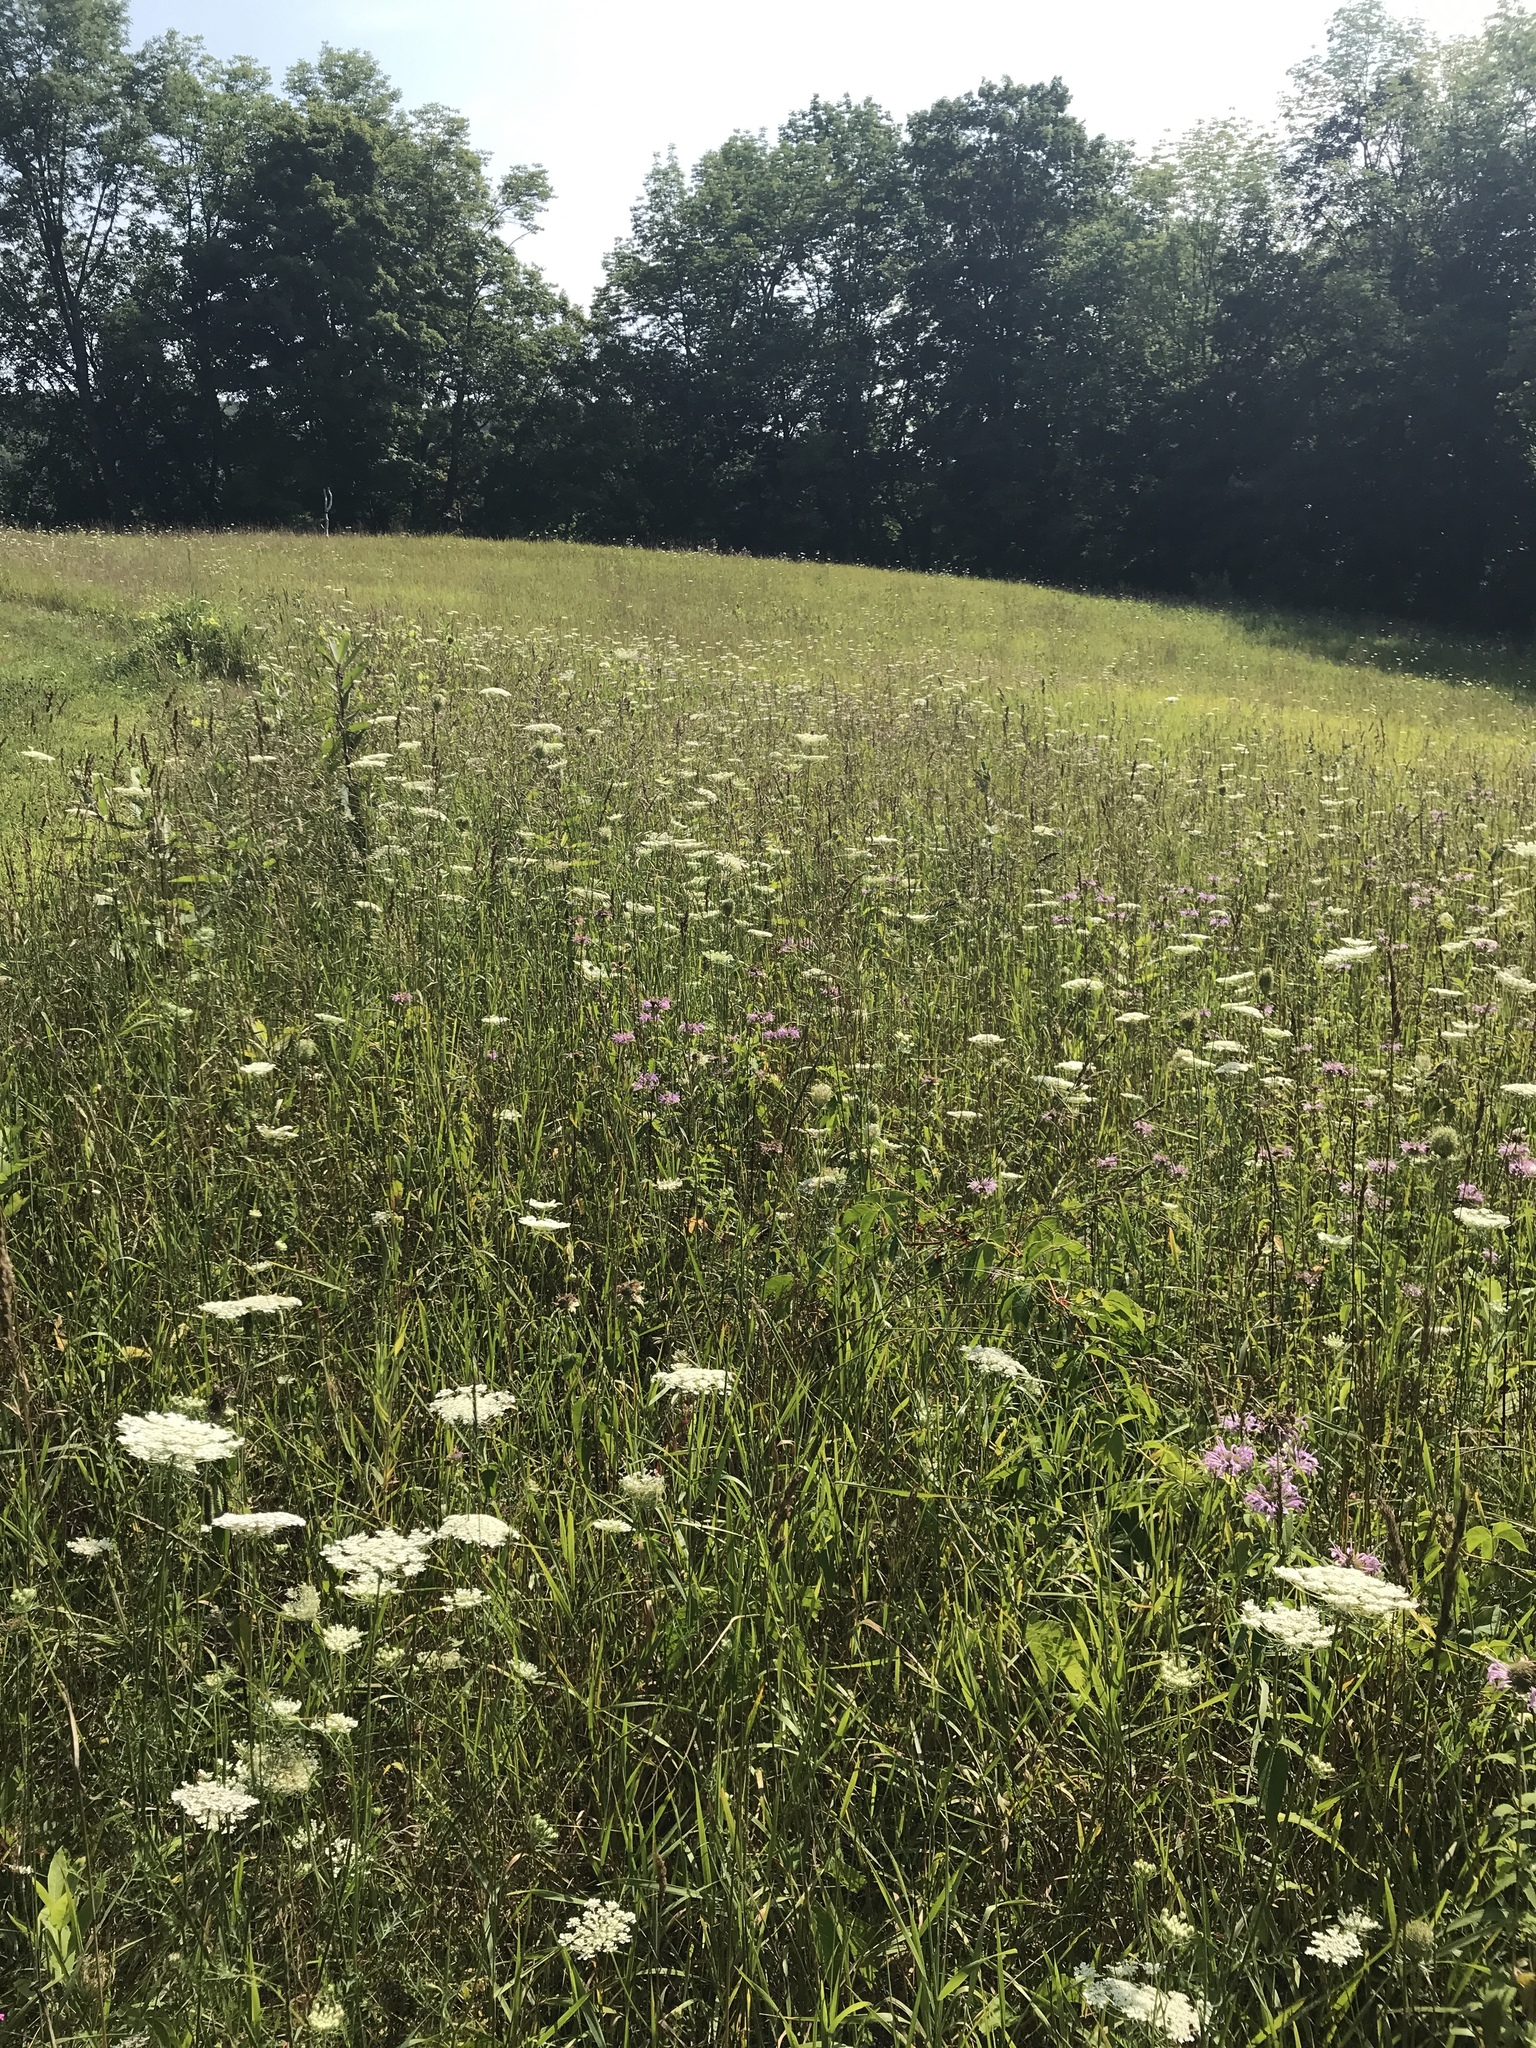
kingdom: Plantae
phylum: Tracheophyta
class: Magnoliopsida
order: Apiales
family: Apiaceae
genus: Daucus
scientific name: Daucus carota
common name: Wild carrot
